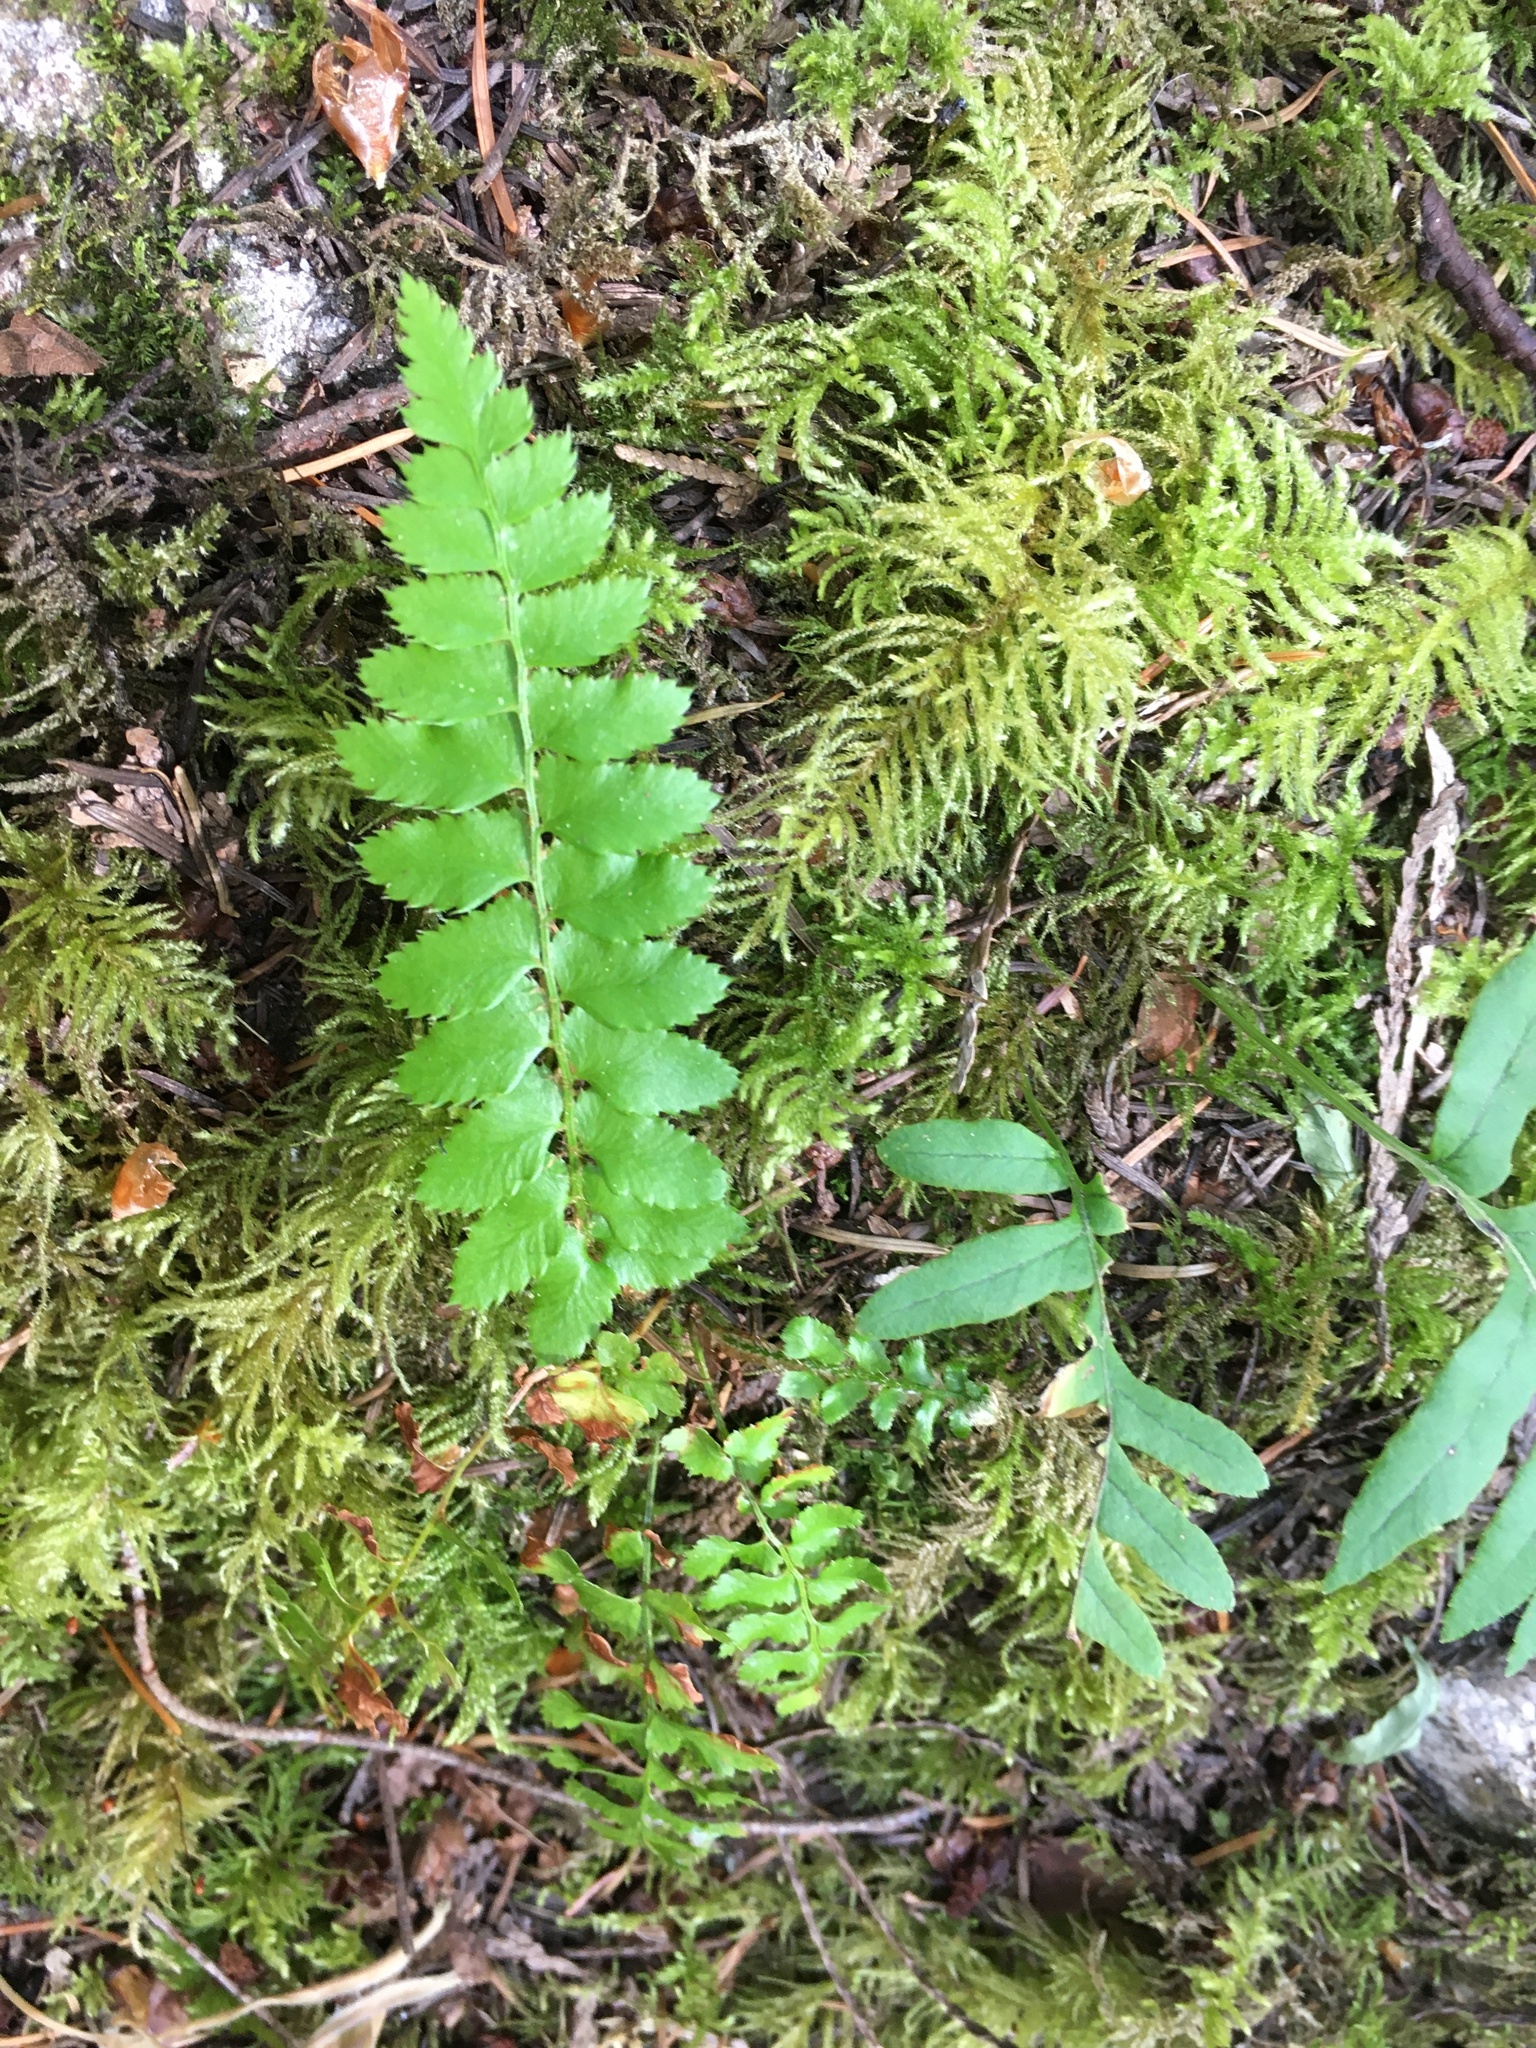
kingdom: Plantae
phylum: Tracheophyta
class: Polypodiopsida
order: Polypodiales
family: Dryopteridaceae
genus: Polystichum
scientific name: Polystichum munitum
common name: Western sword-fern
